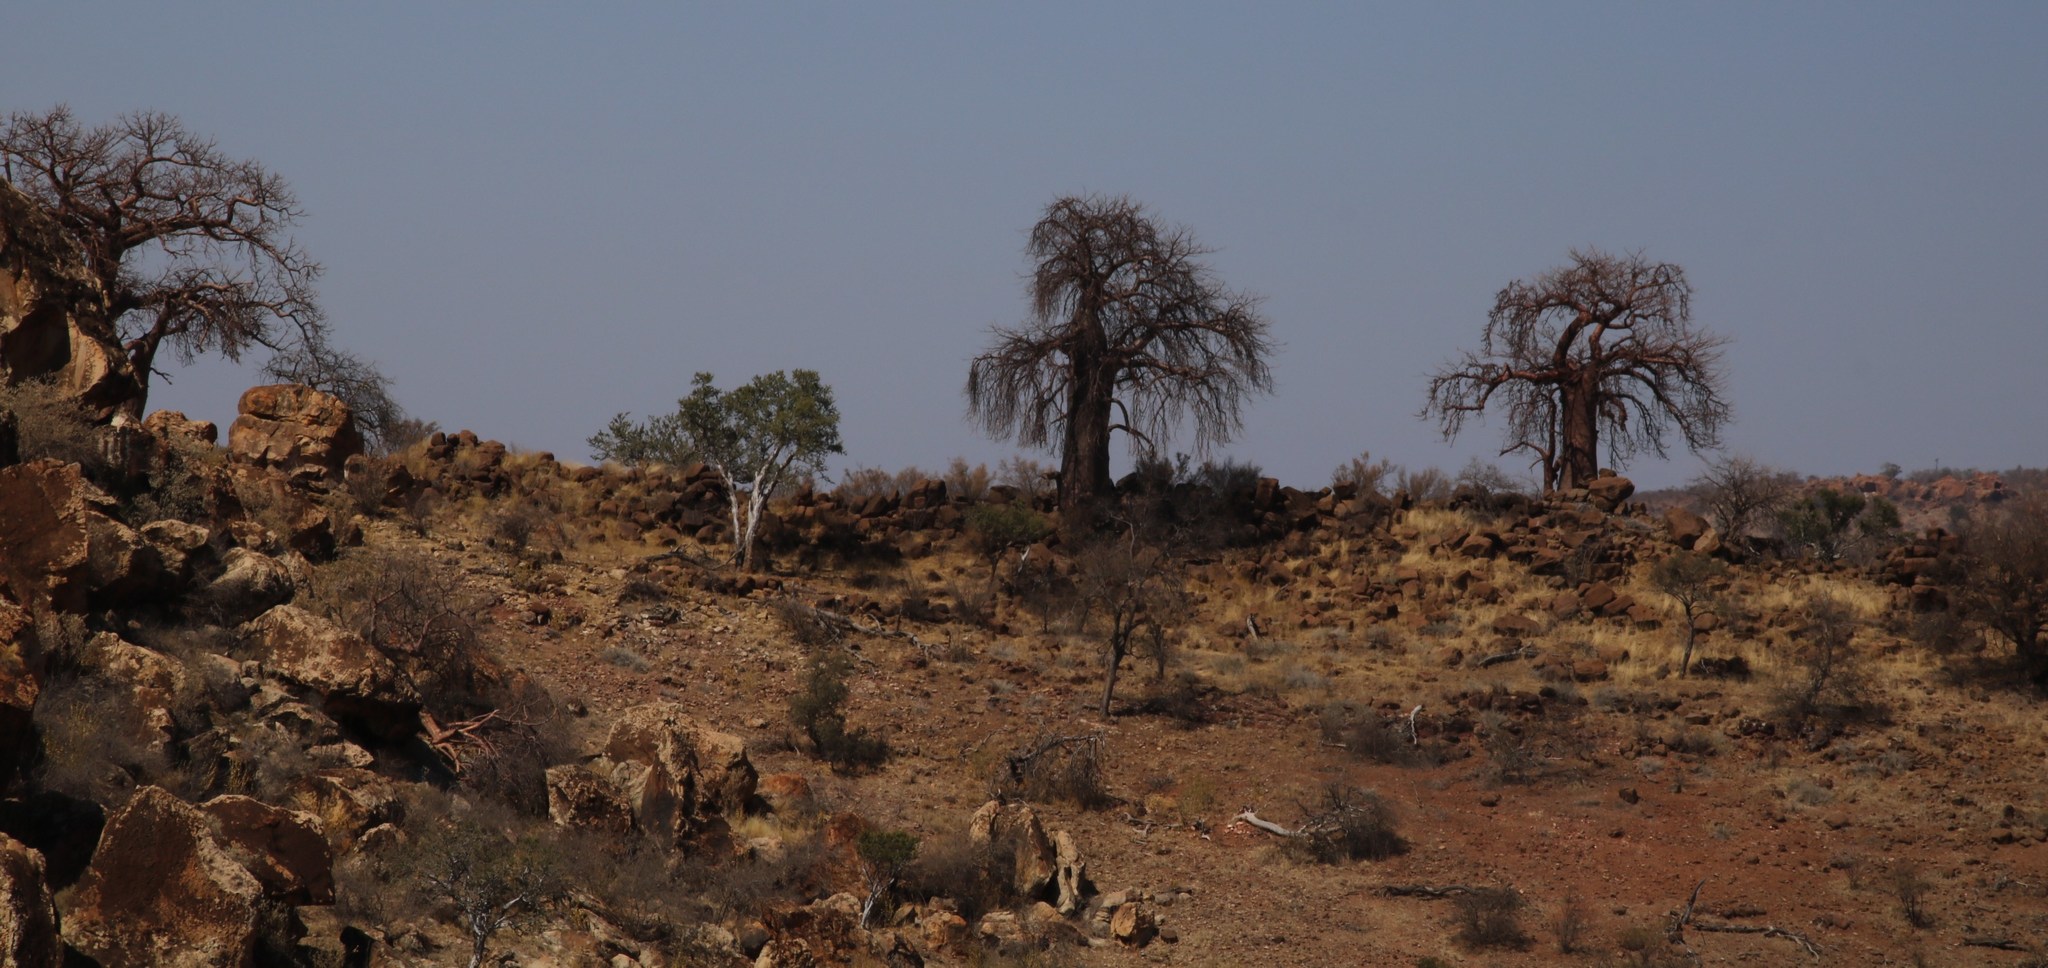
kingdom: Plantae
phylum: Tracheophyta
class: Magnoliopsida
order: Malvales
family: Malvaceae
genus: Adansonia
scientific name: Adansonia digitata
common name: Dead-rat-tree
